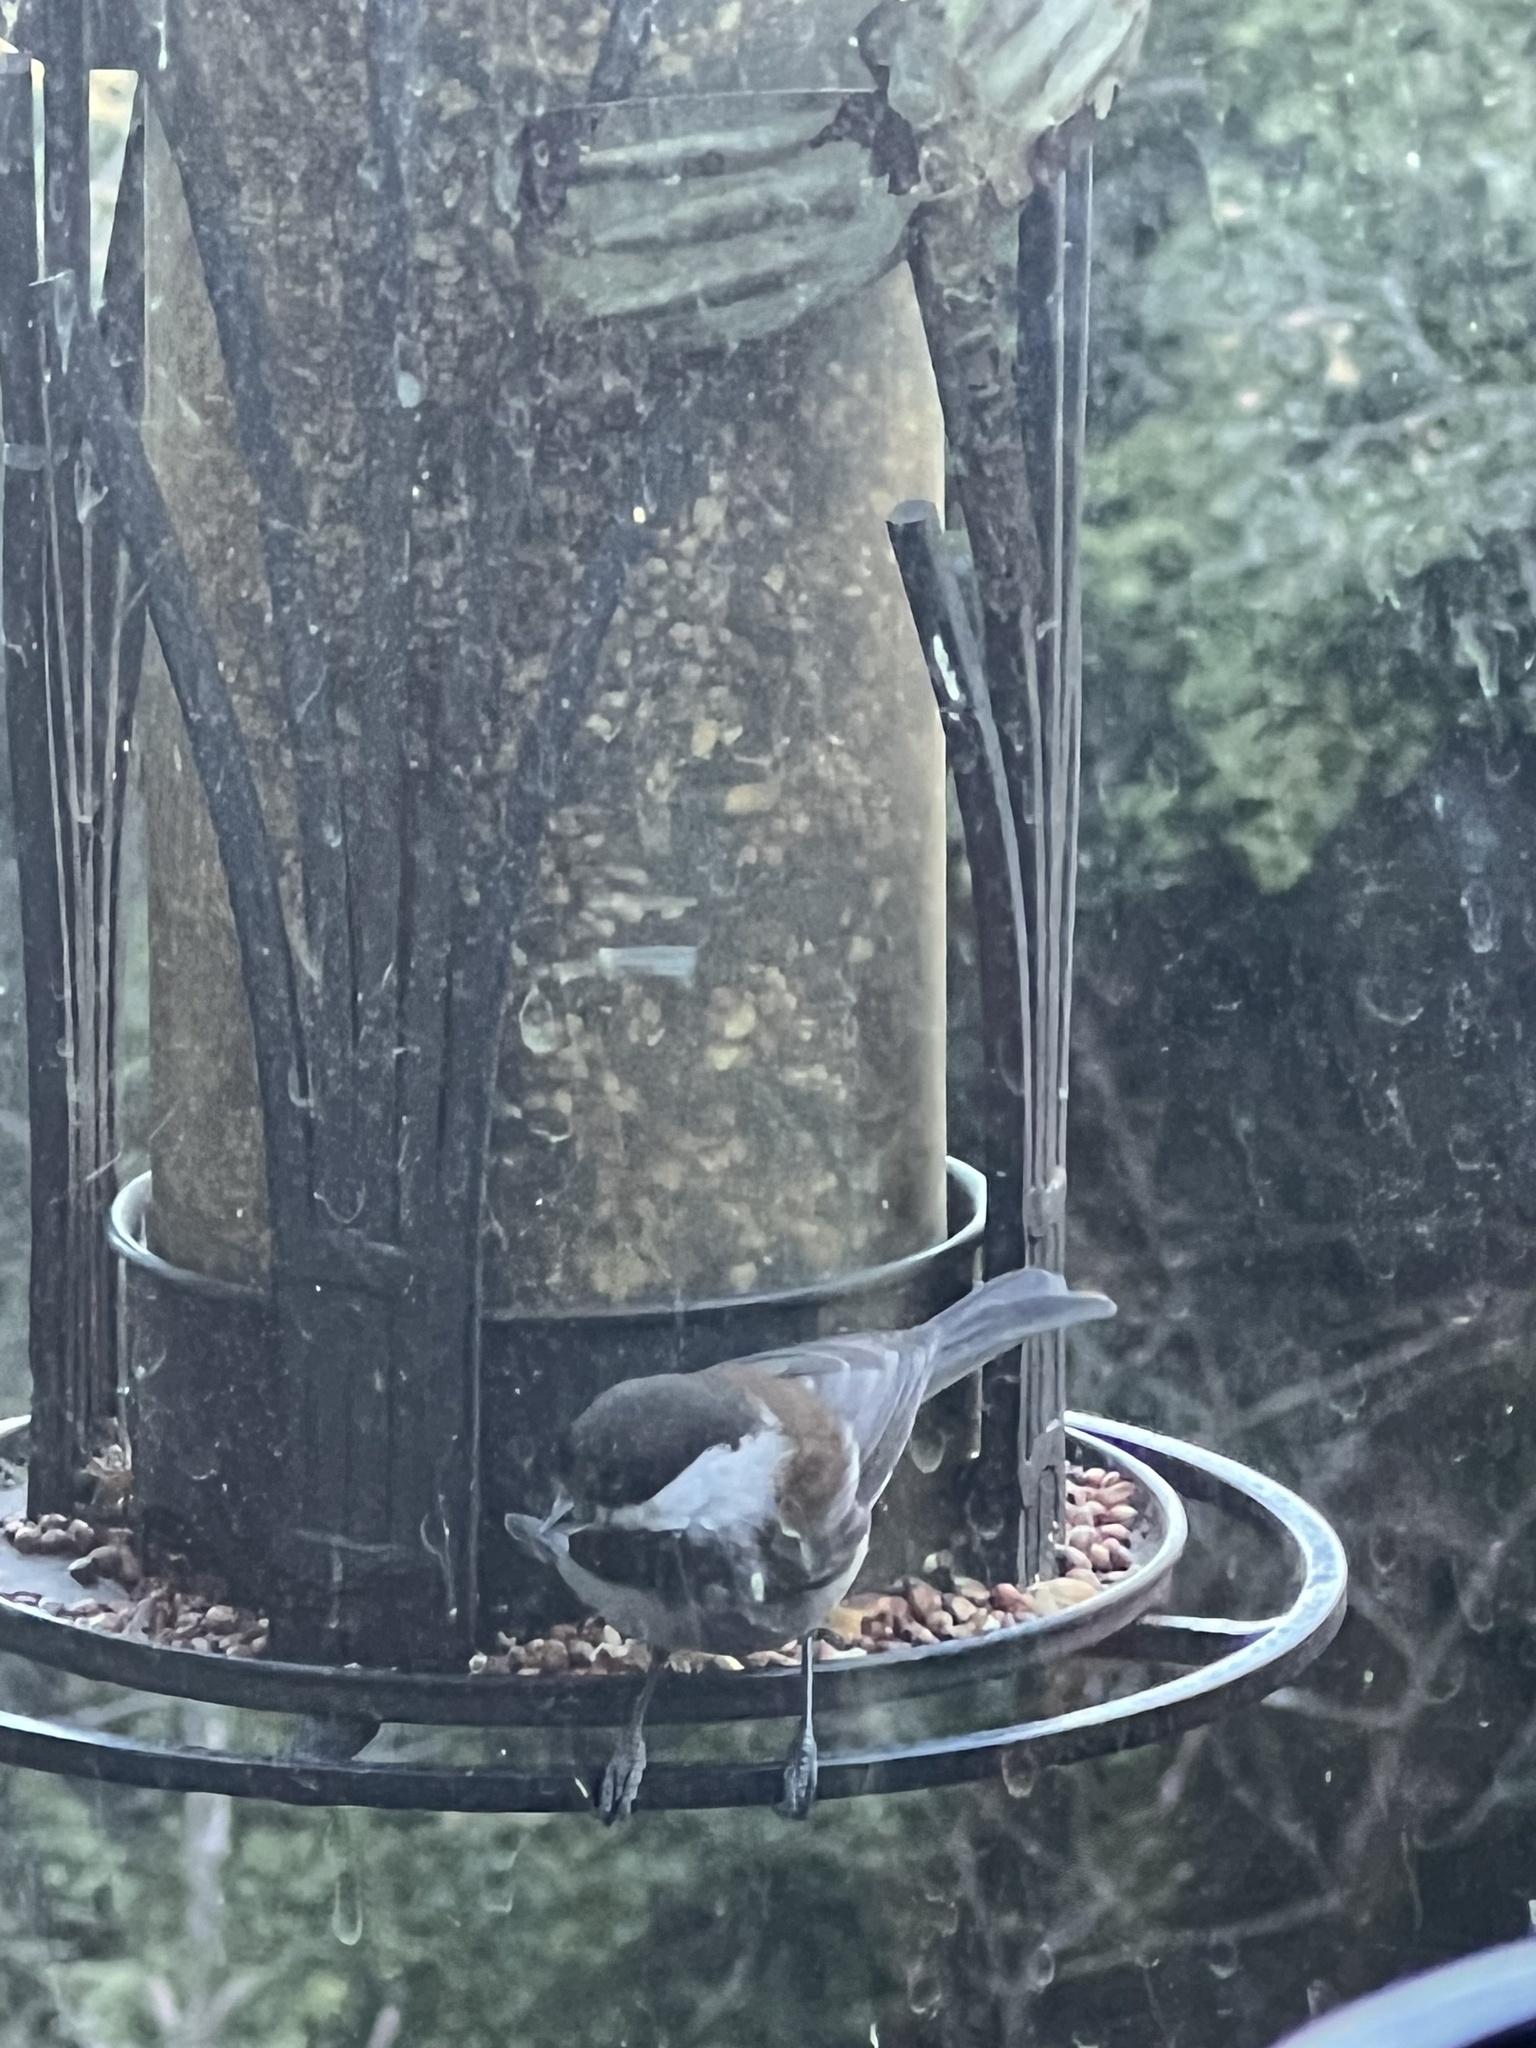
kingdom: Animalia
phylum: Chordata
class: Aves
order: Passeriformes
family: Paridae
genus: Poecile
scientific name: Poecile rufescens
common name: Chestnut-backed chickadee
